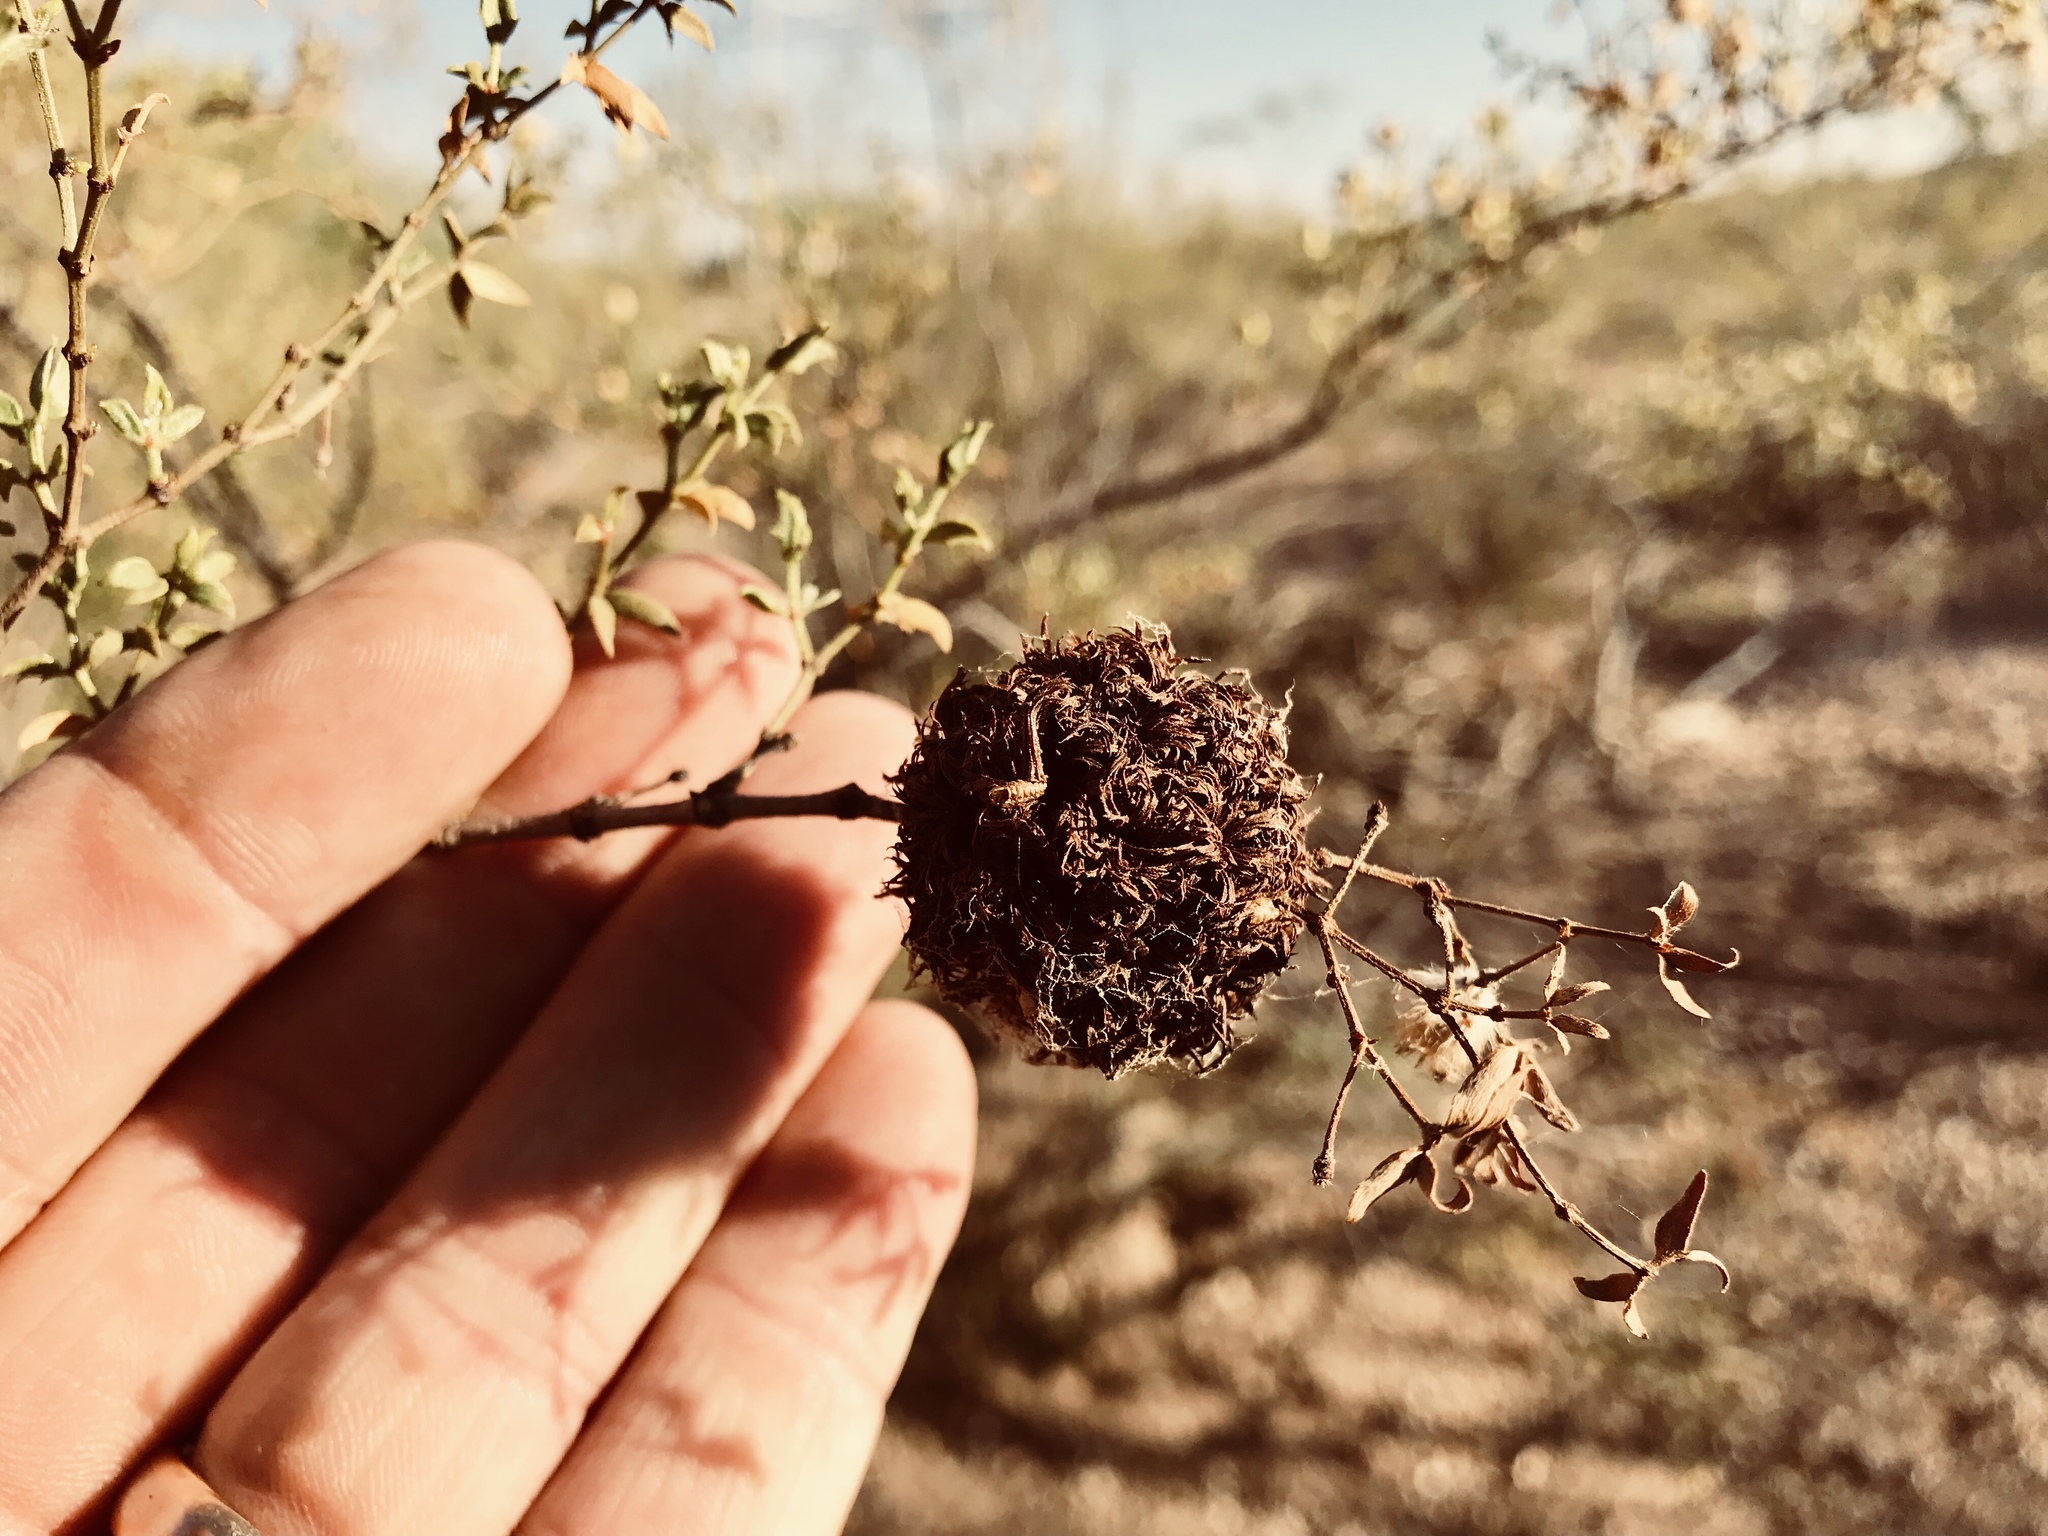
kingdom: Animalia
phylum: Arthropoda
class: Insecta
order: Diptera
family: Cecidomyiidae
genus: Asphondylia
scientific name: Asphondylia auripila
